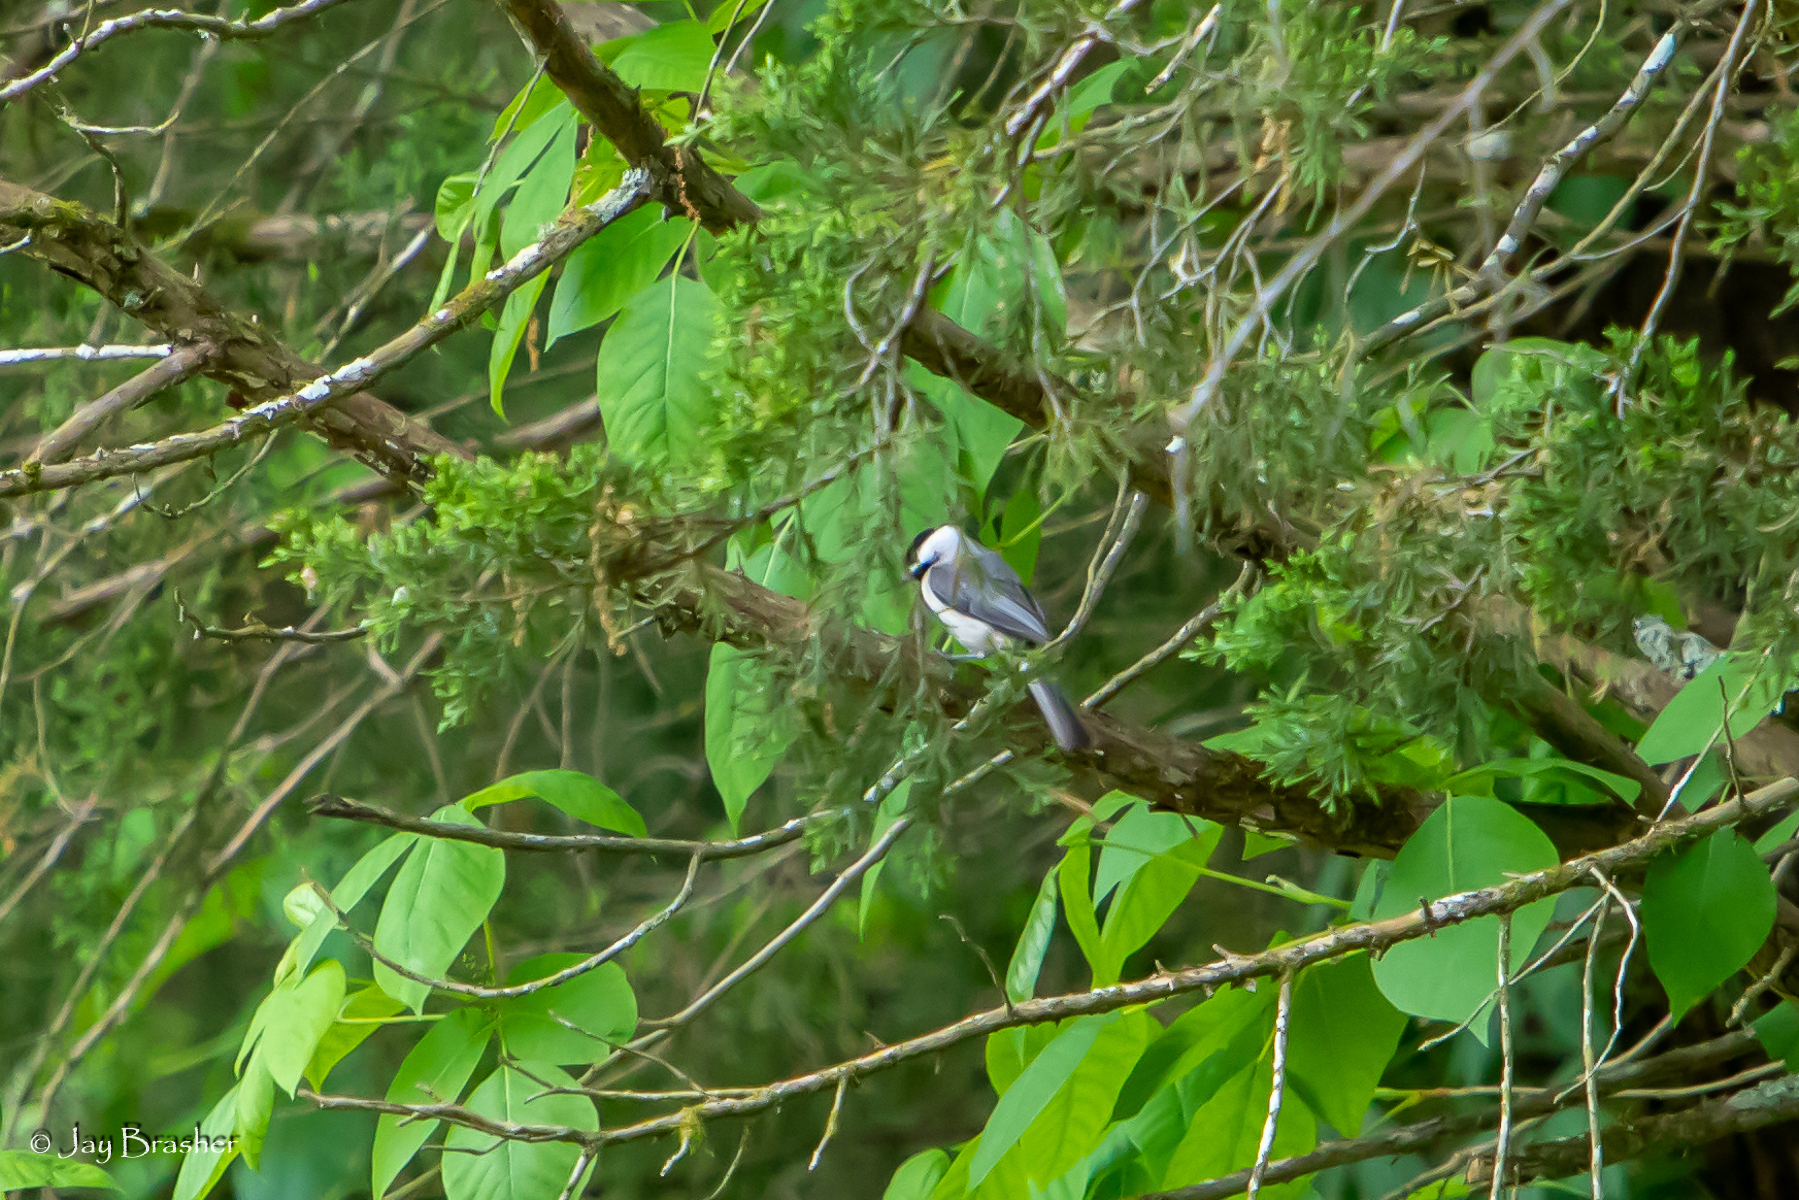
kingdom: Animalia
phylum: Chordata
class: Aves
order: Passeriformes
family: Paridae
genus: Poecile
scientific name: Poecile carolinensis
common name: Carolina chickadee
